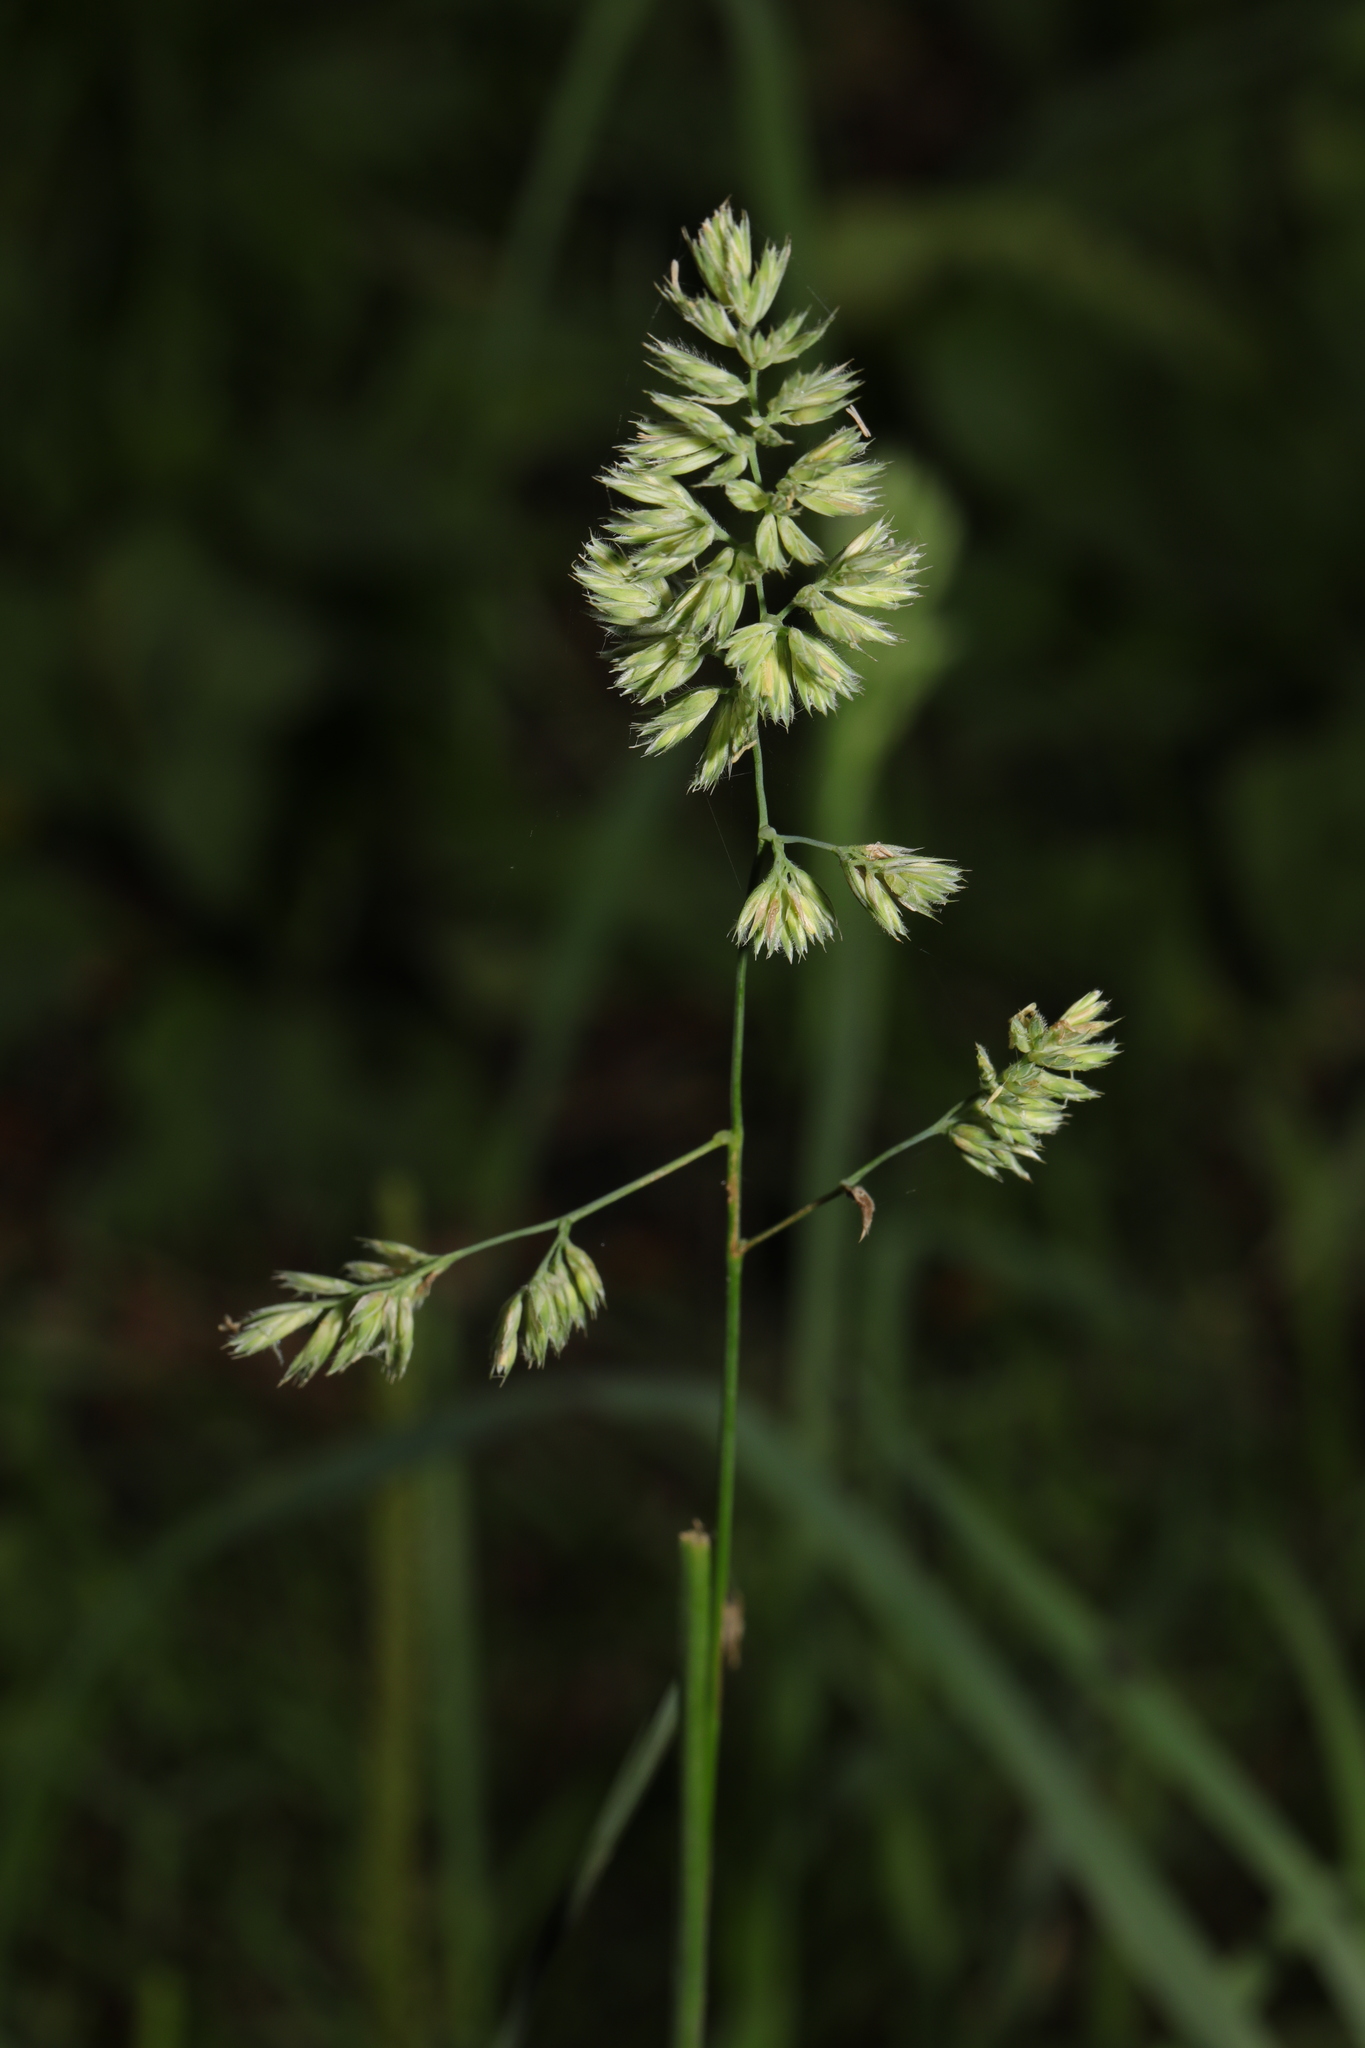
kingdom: Plantae
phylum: Tracheophyta
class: Liliopsida
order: Poales
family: Poaceae
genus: Dactylis
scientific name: Dactylis glomerata
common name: Orchardgrass
